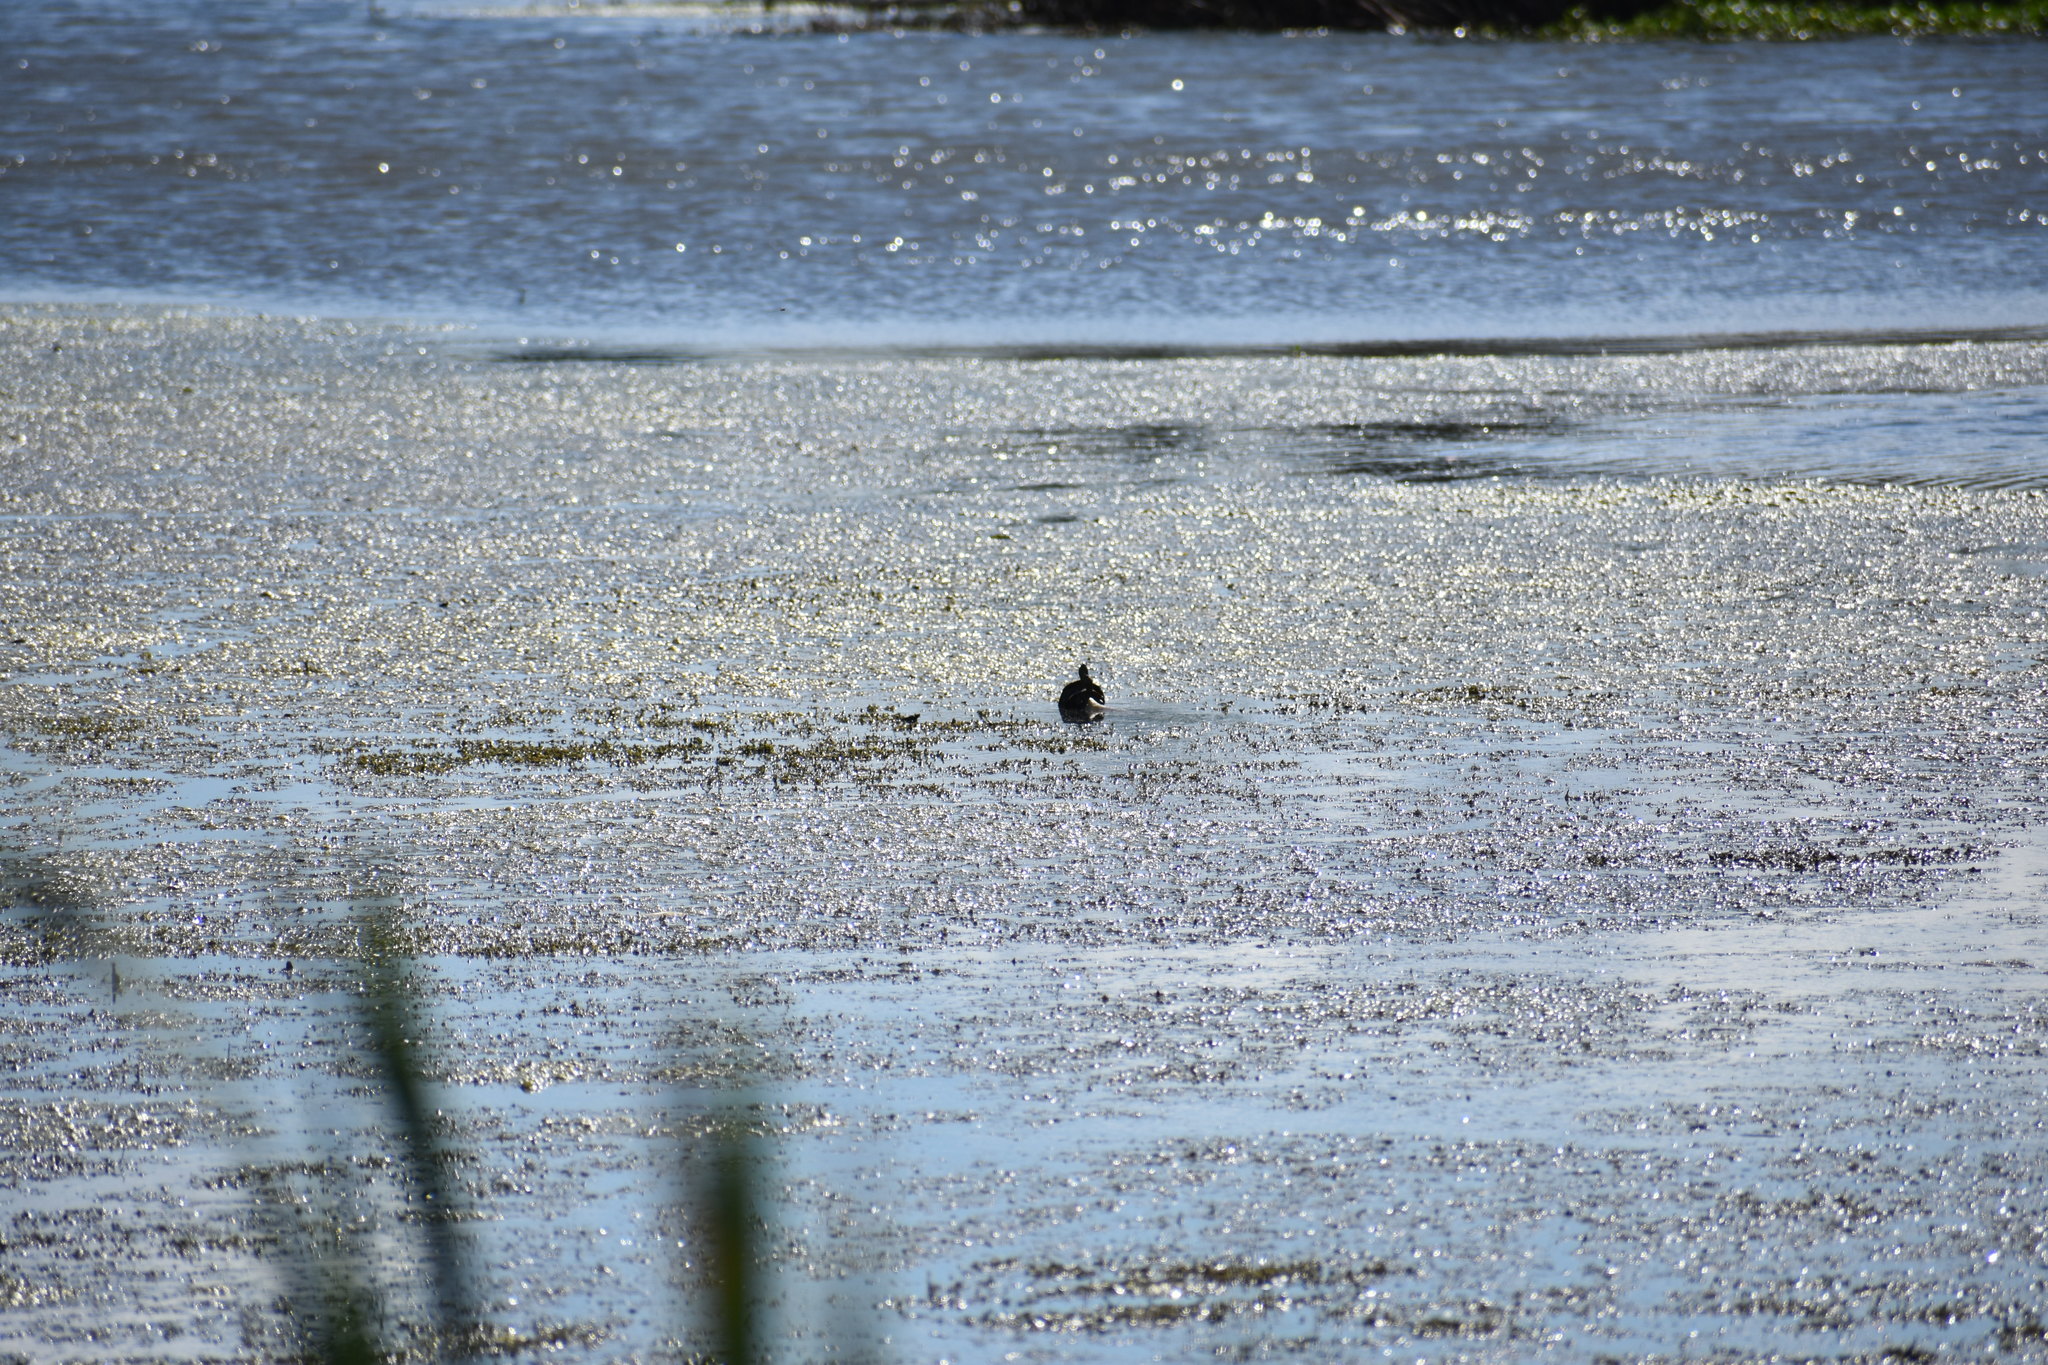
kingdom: Animalia
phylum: Chordata
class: Testudines
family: Emydidae
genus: Trachemys
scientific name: Trachemys scripta
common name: Slider
